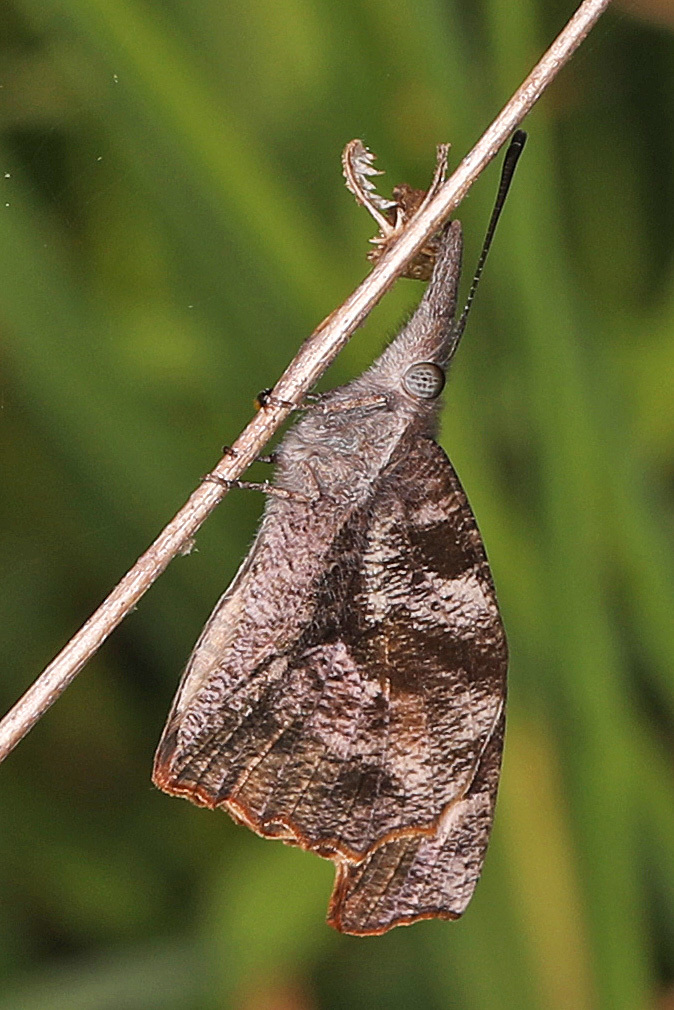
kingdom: Animalia
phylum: Arthropoda
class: Insecta
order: Lepidoptera
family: Nymphalidae
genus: Libytheana
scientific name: Libytheana carinenta
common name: American snout
